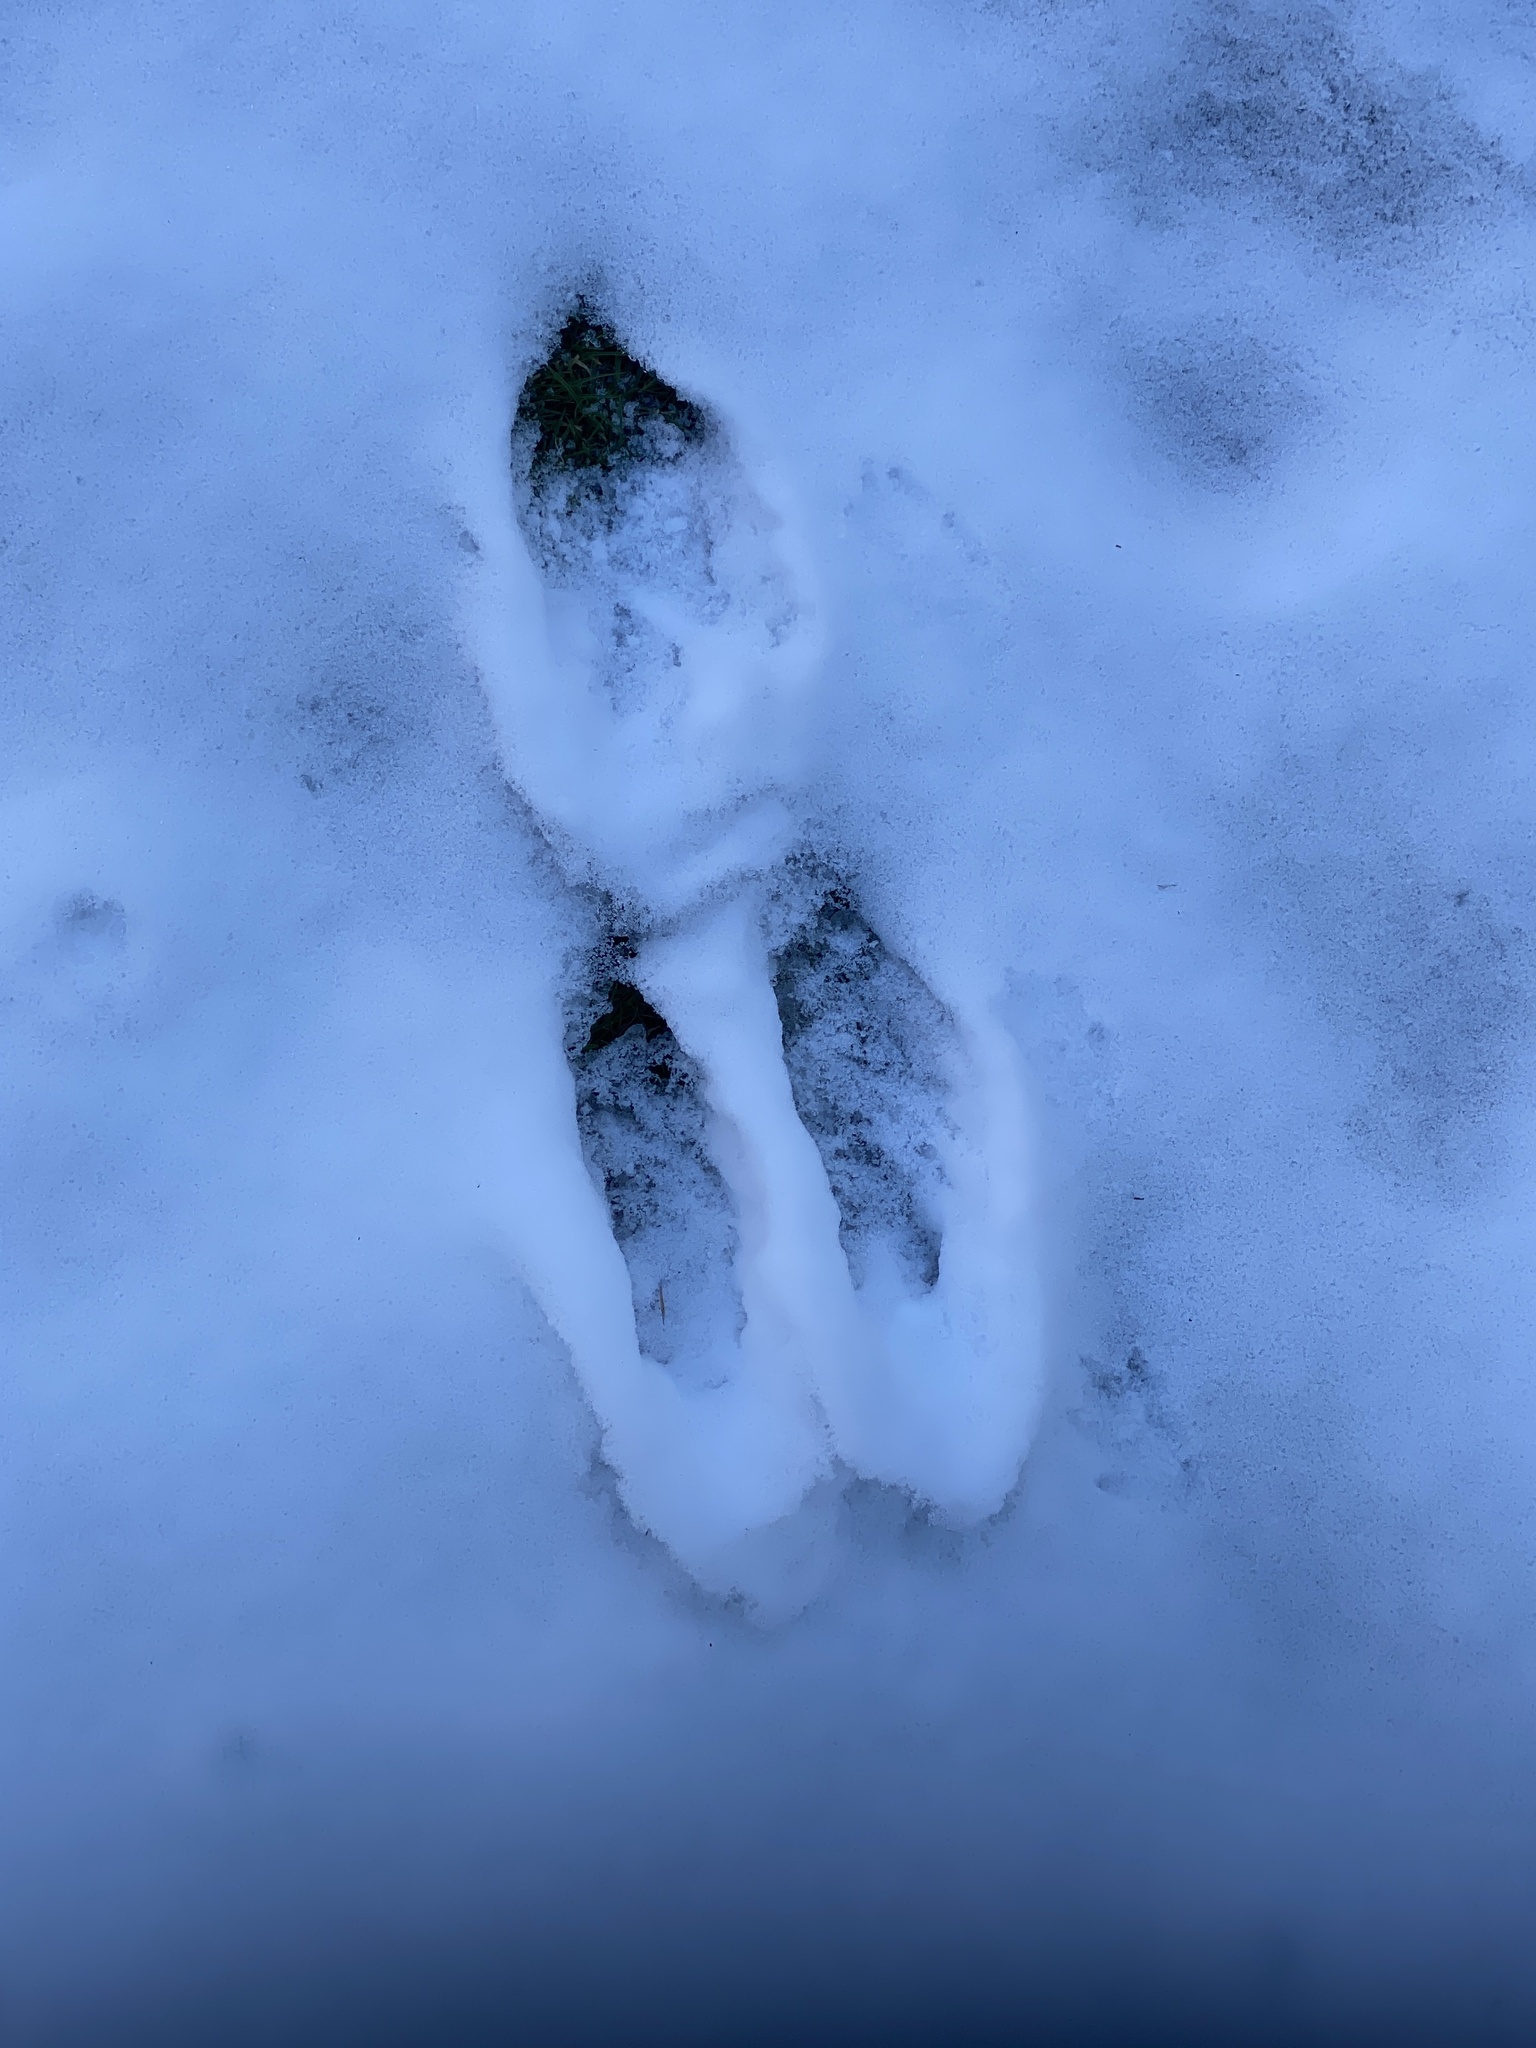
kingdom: Animalia
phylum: Chordata
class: Mammalia
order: Artiodactyla
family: Cervidae
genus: Odocoileus
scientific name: Odocoileus virginianus
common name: White-tailed deer
